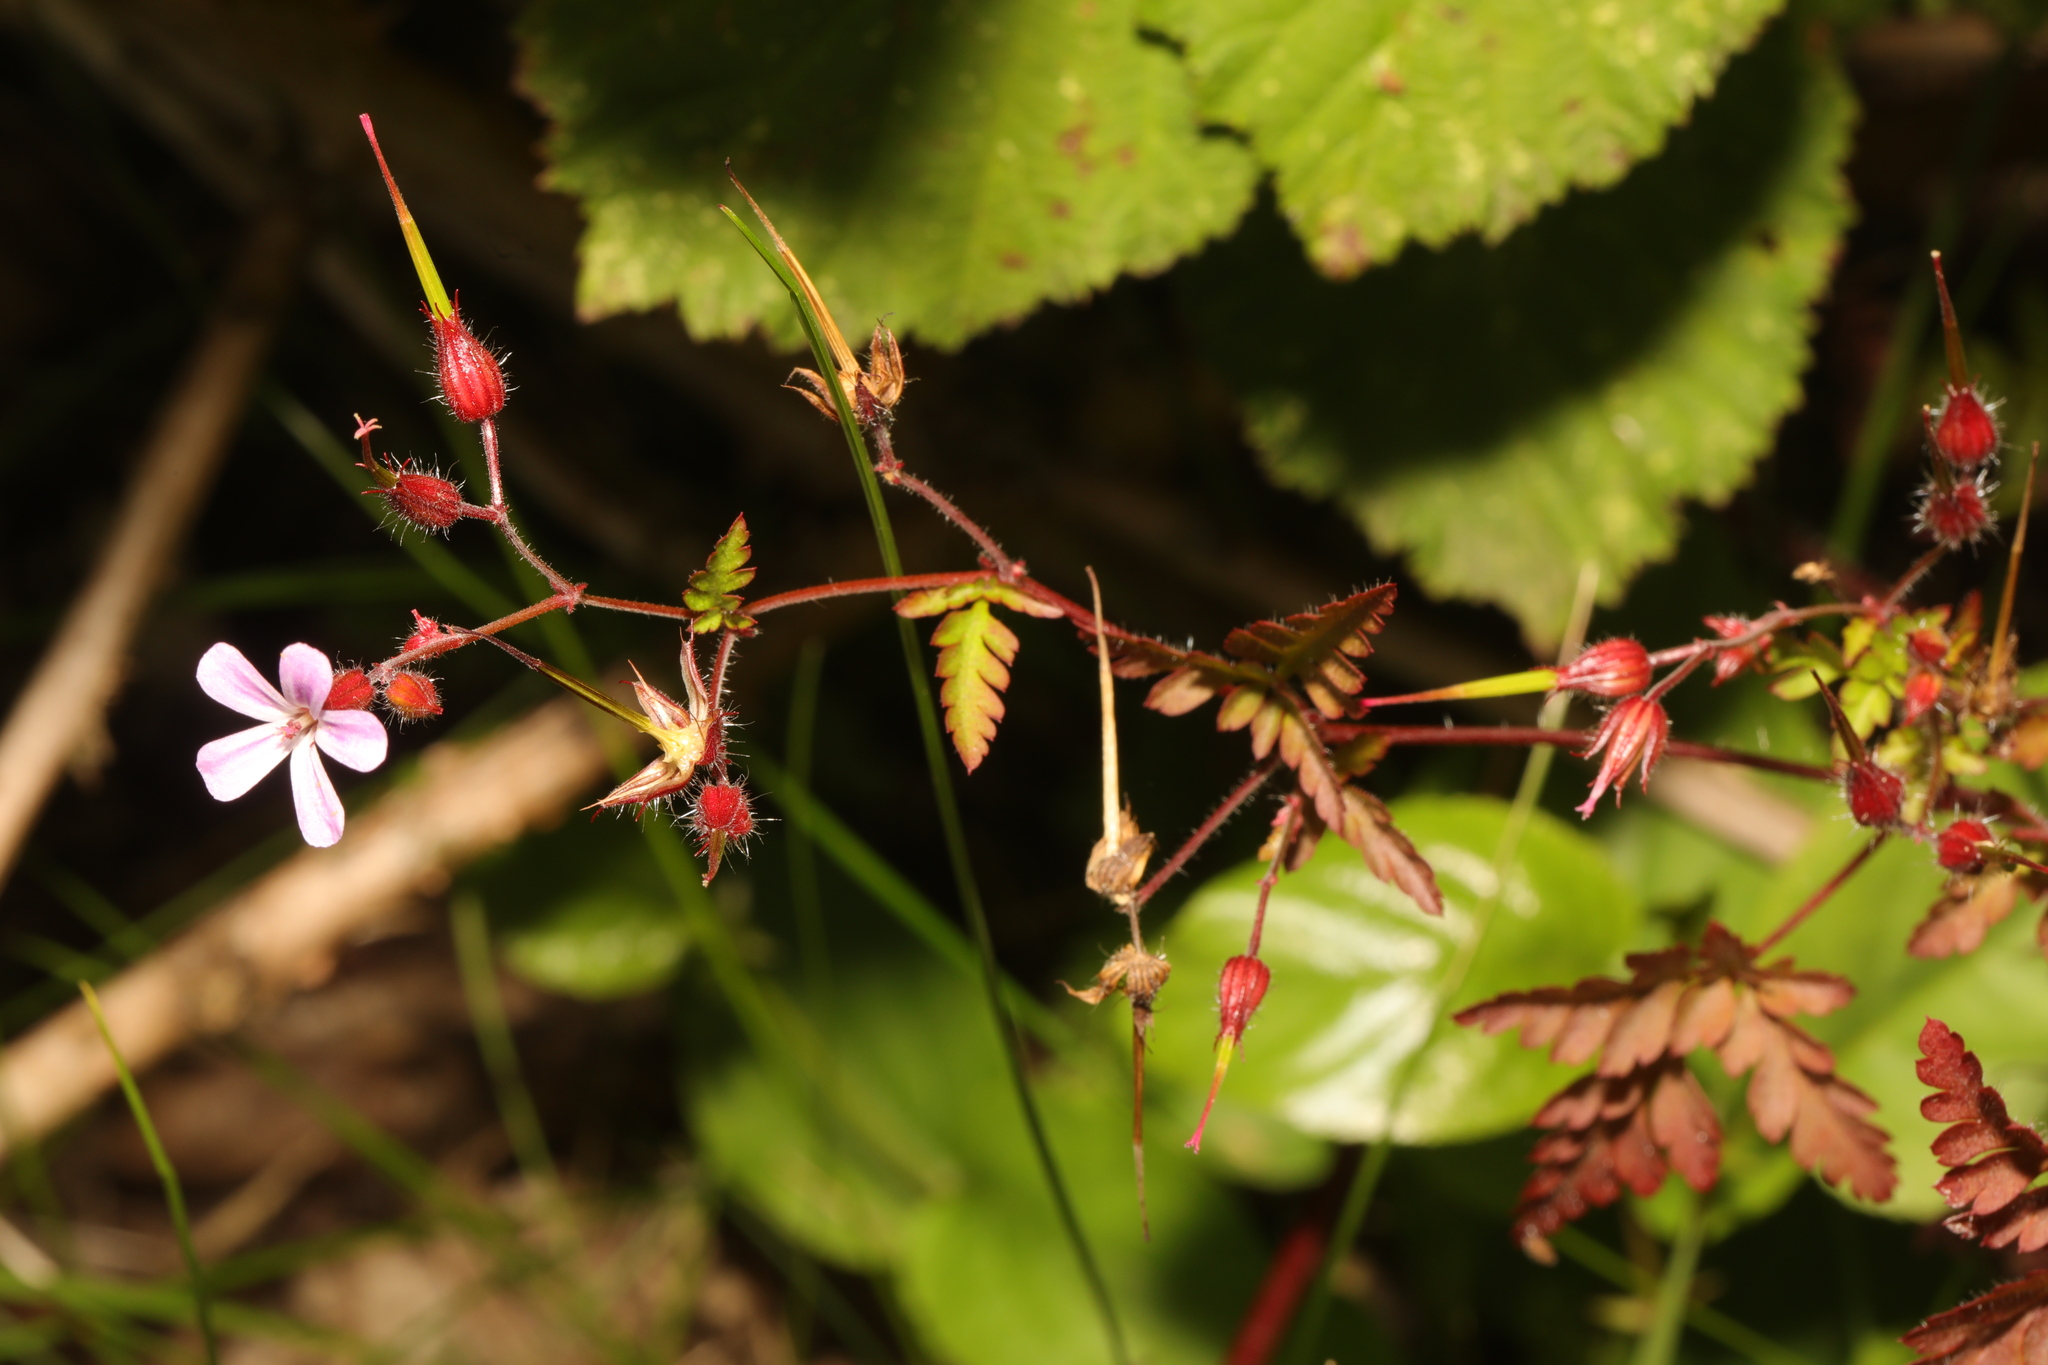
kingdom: Plantae
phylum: Tracheophyta
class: Magnoliopsida
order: Geraniales
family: Geraniaceae
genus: Geranium
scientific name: Geranium robertianum
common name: Herb-robert
